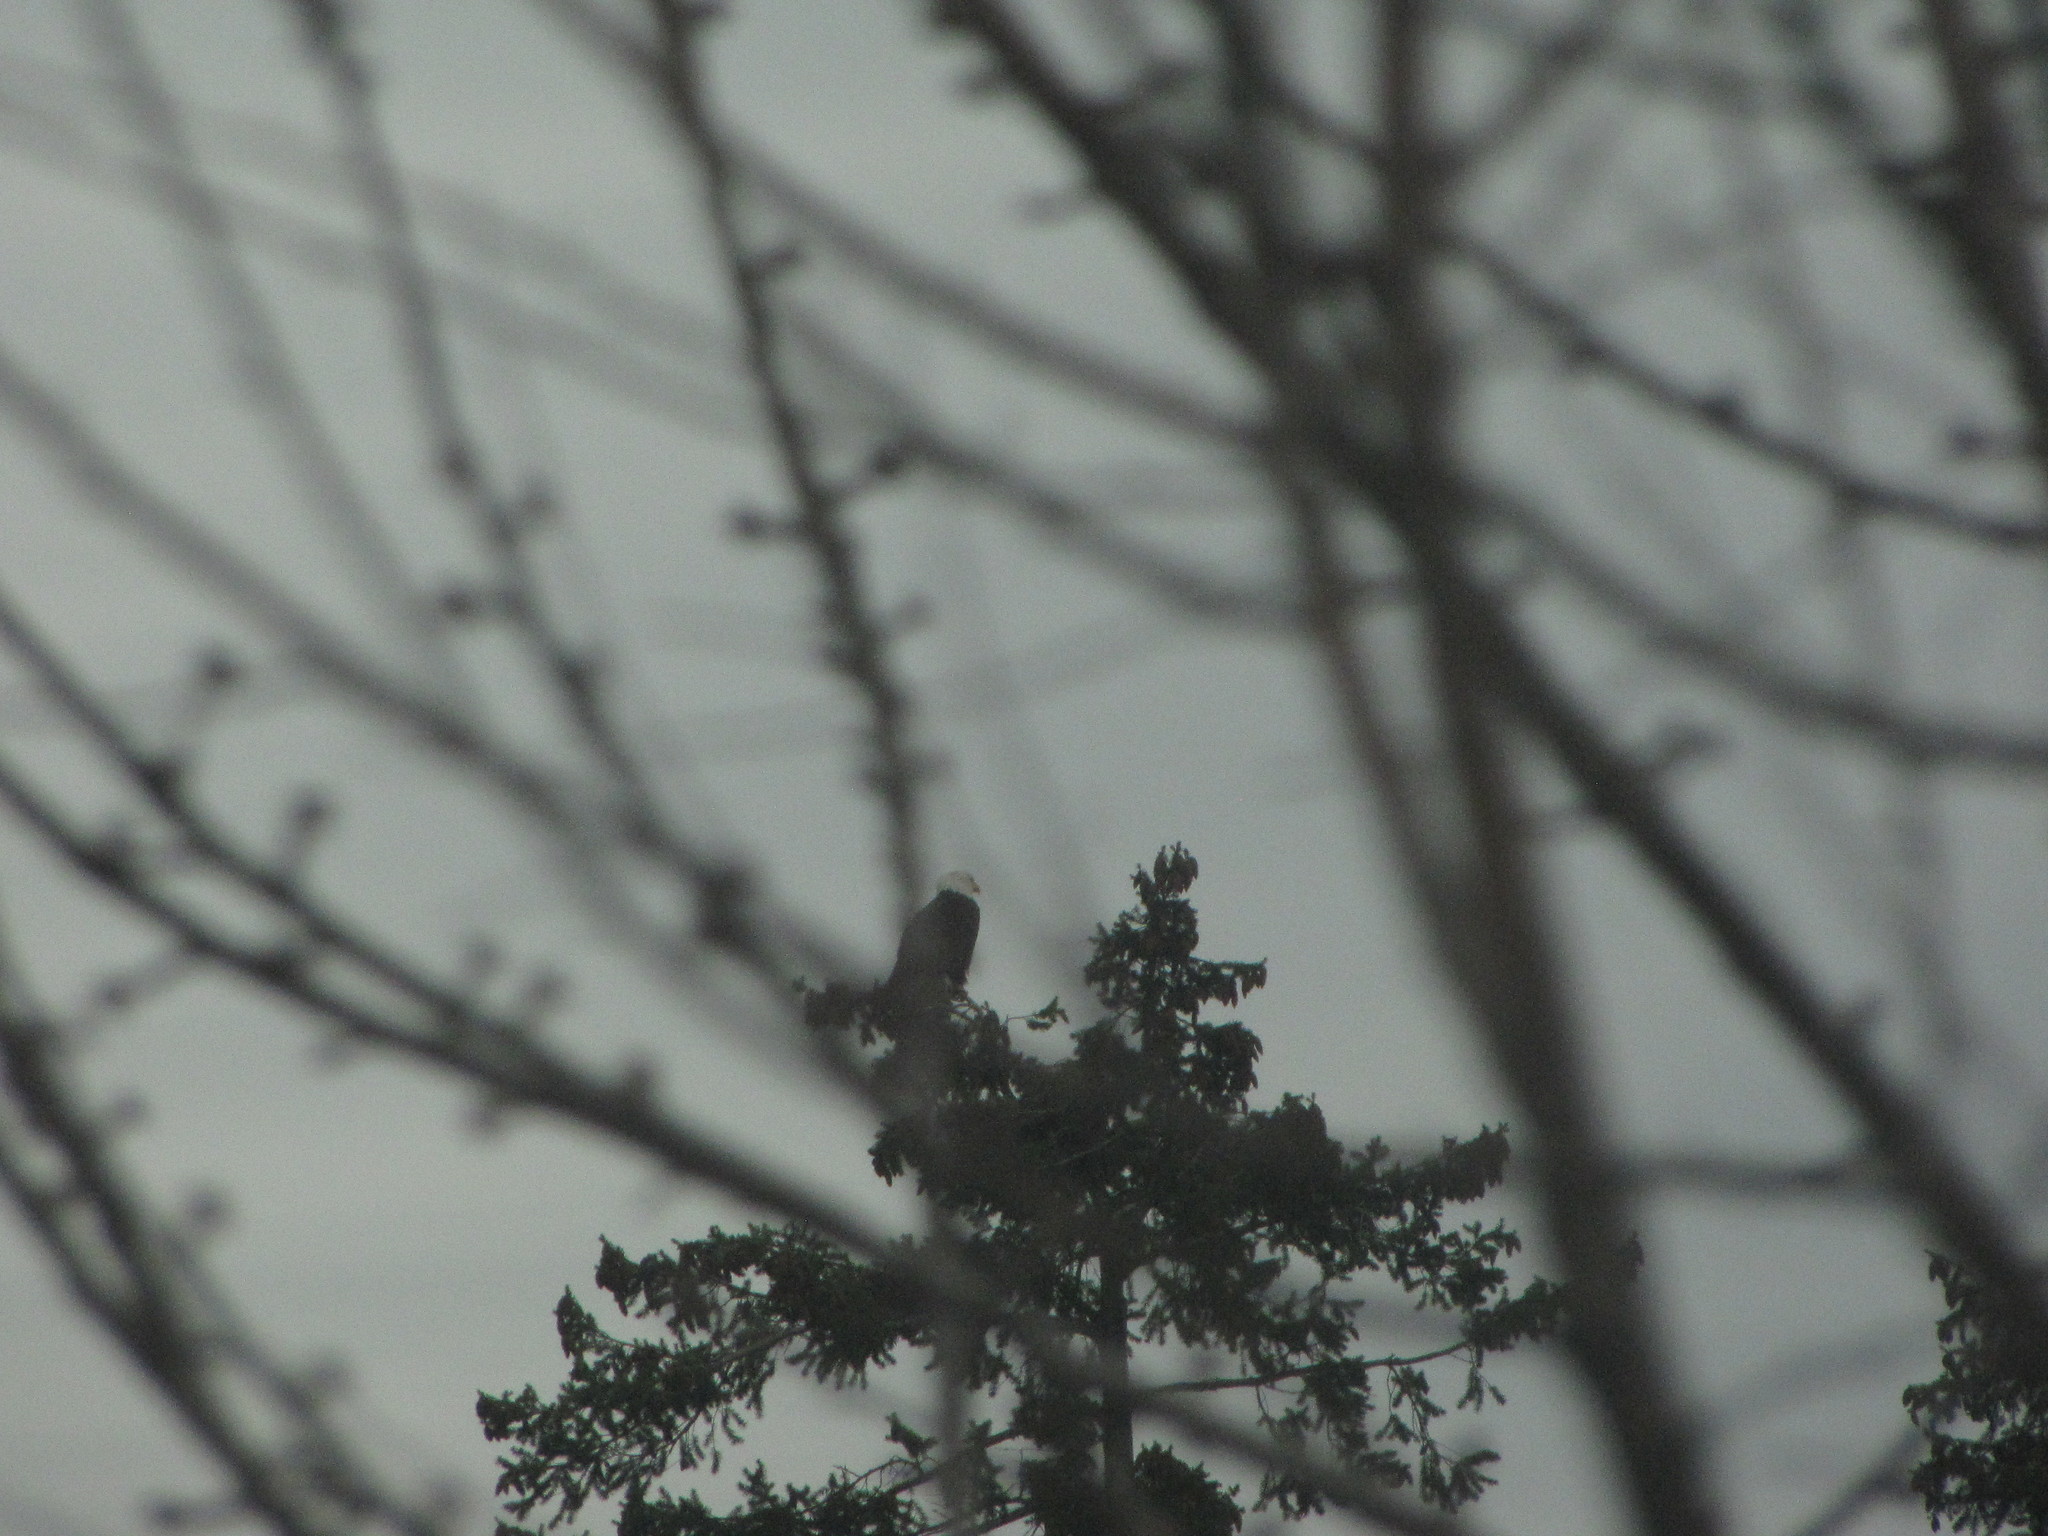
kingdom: Animalia
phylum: Chordata
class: Aves
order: Accipitriformes
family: Accipitridae
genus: Haliaeetus
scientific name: Haliaeetus leucocephalus
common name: Bald eagle
